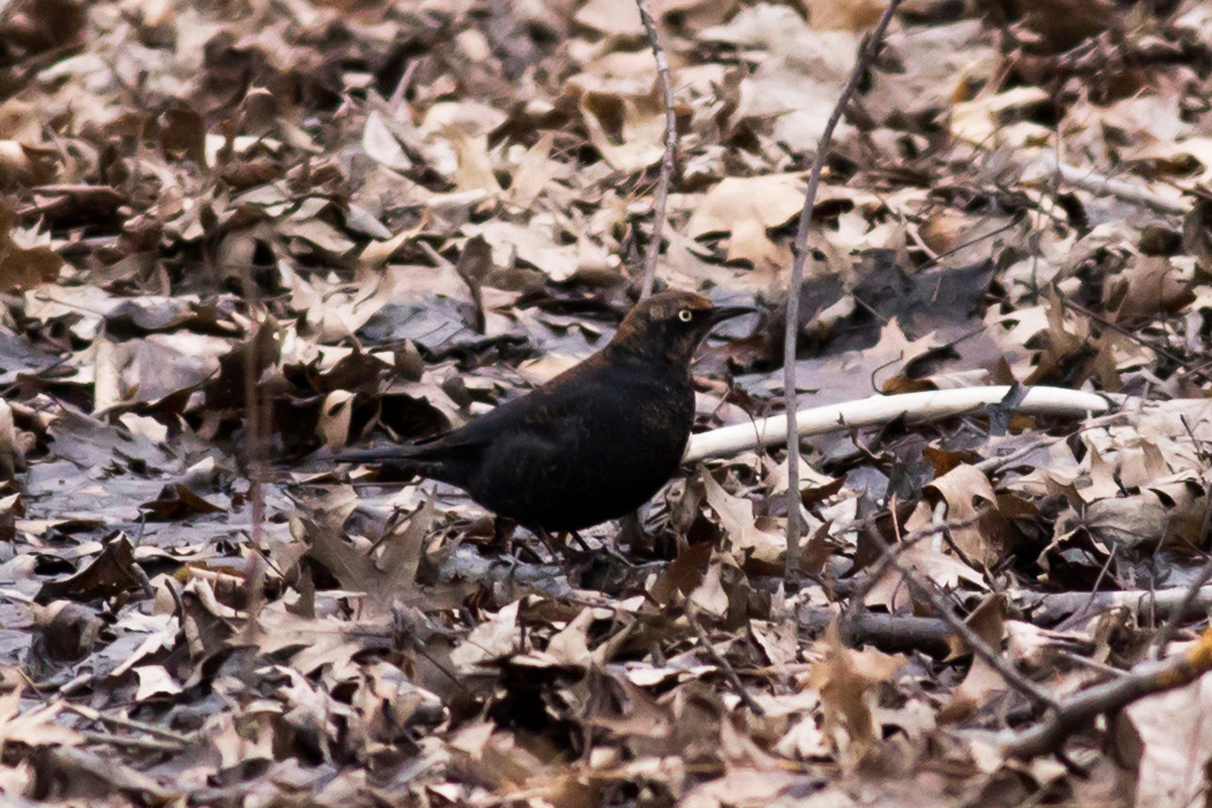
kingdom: Animalia
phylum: Chordata
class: Aves
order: Passeriformes
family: Icteridae
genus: Euphagus
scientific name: Euphagus carolinus
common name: Rusty blackbird
